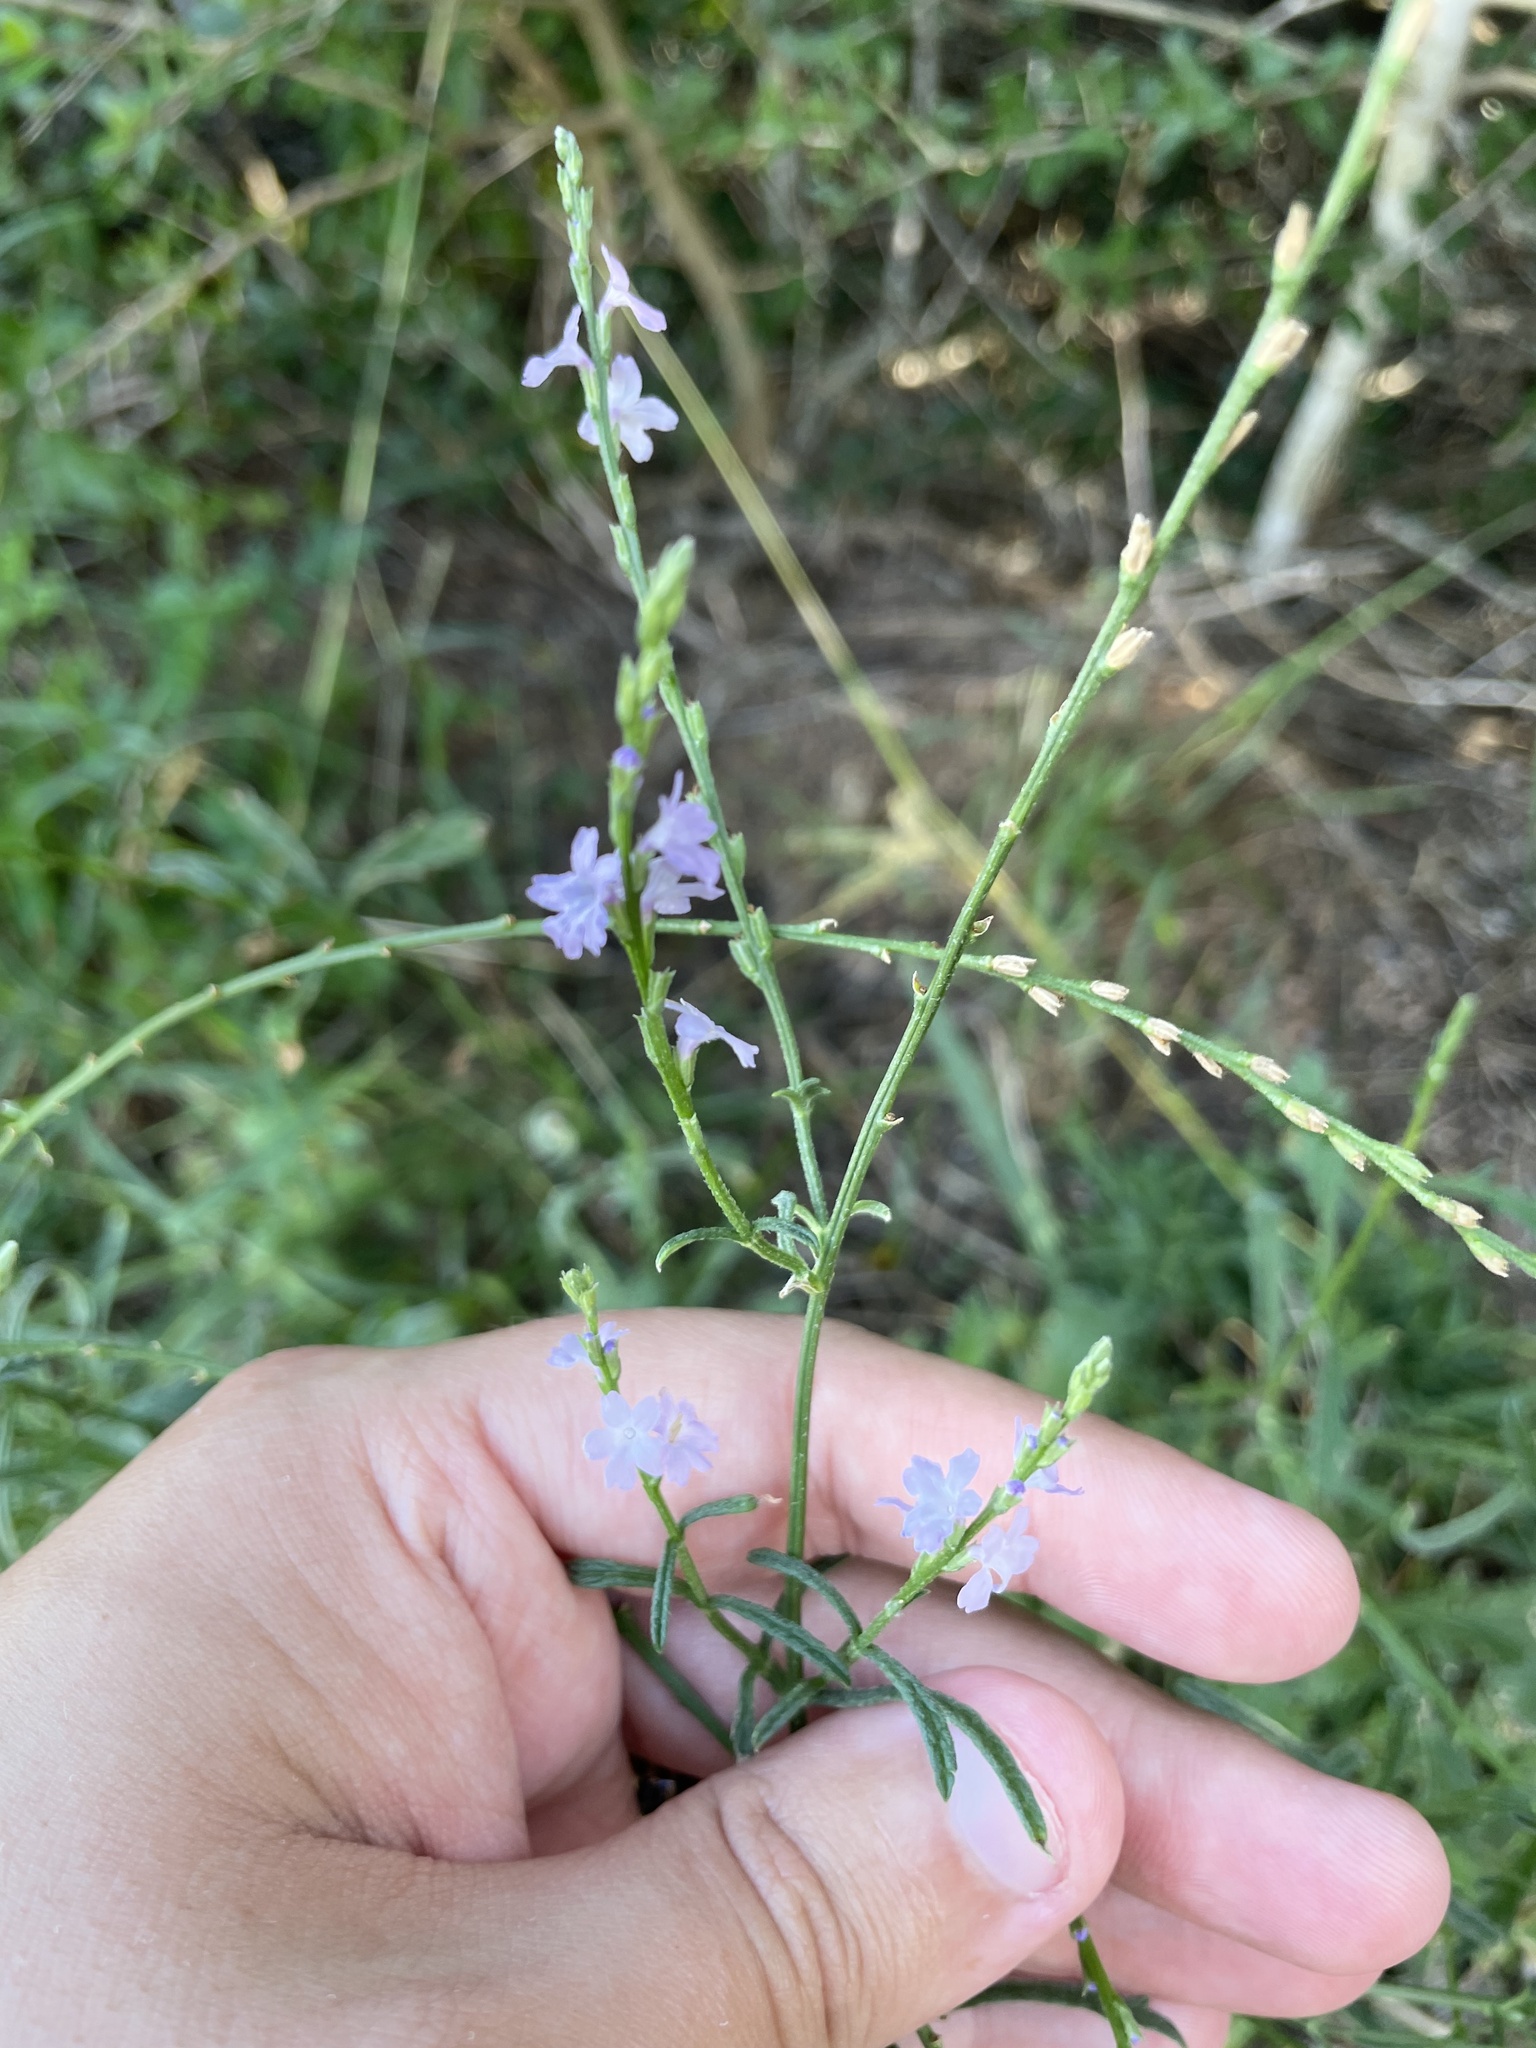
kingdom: Plantae
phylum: Tracheophyta
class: Magnoliopsida
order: Lamiales
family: Verbenaceae
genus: Verbena
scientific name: Verbena halei
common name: Texas vervain
